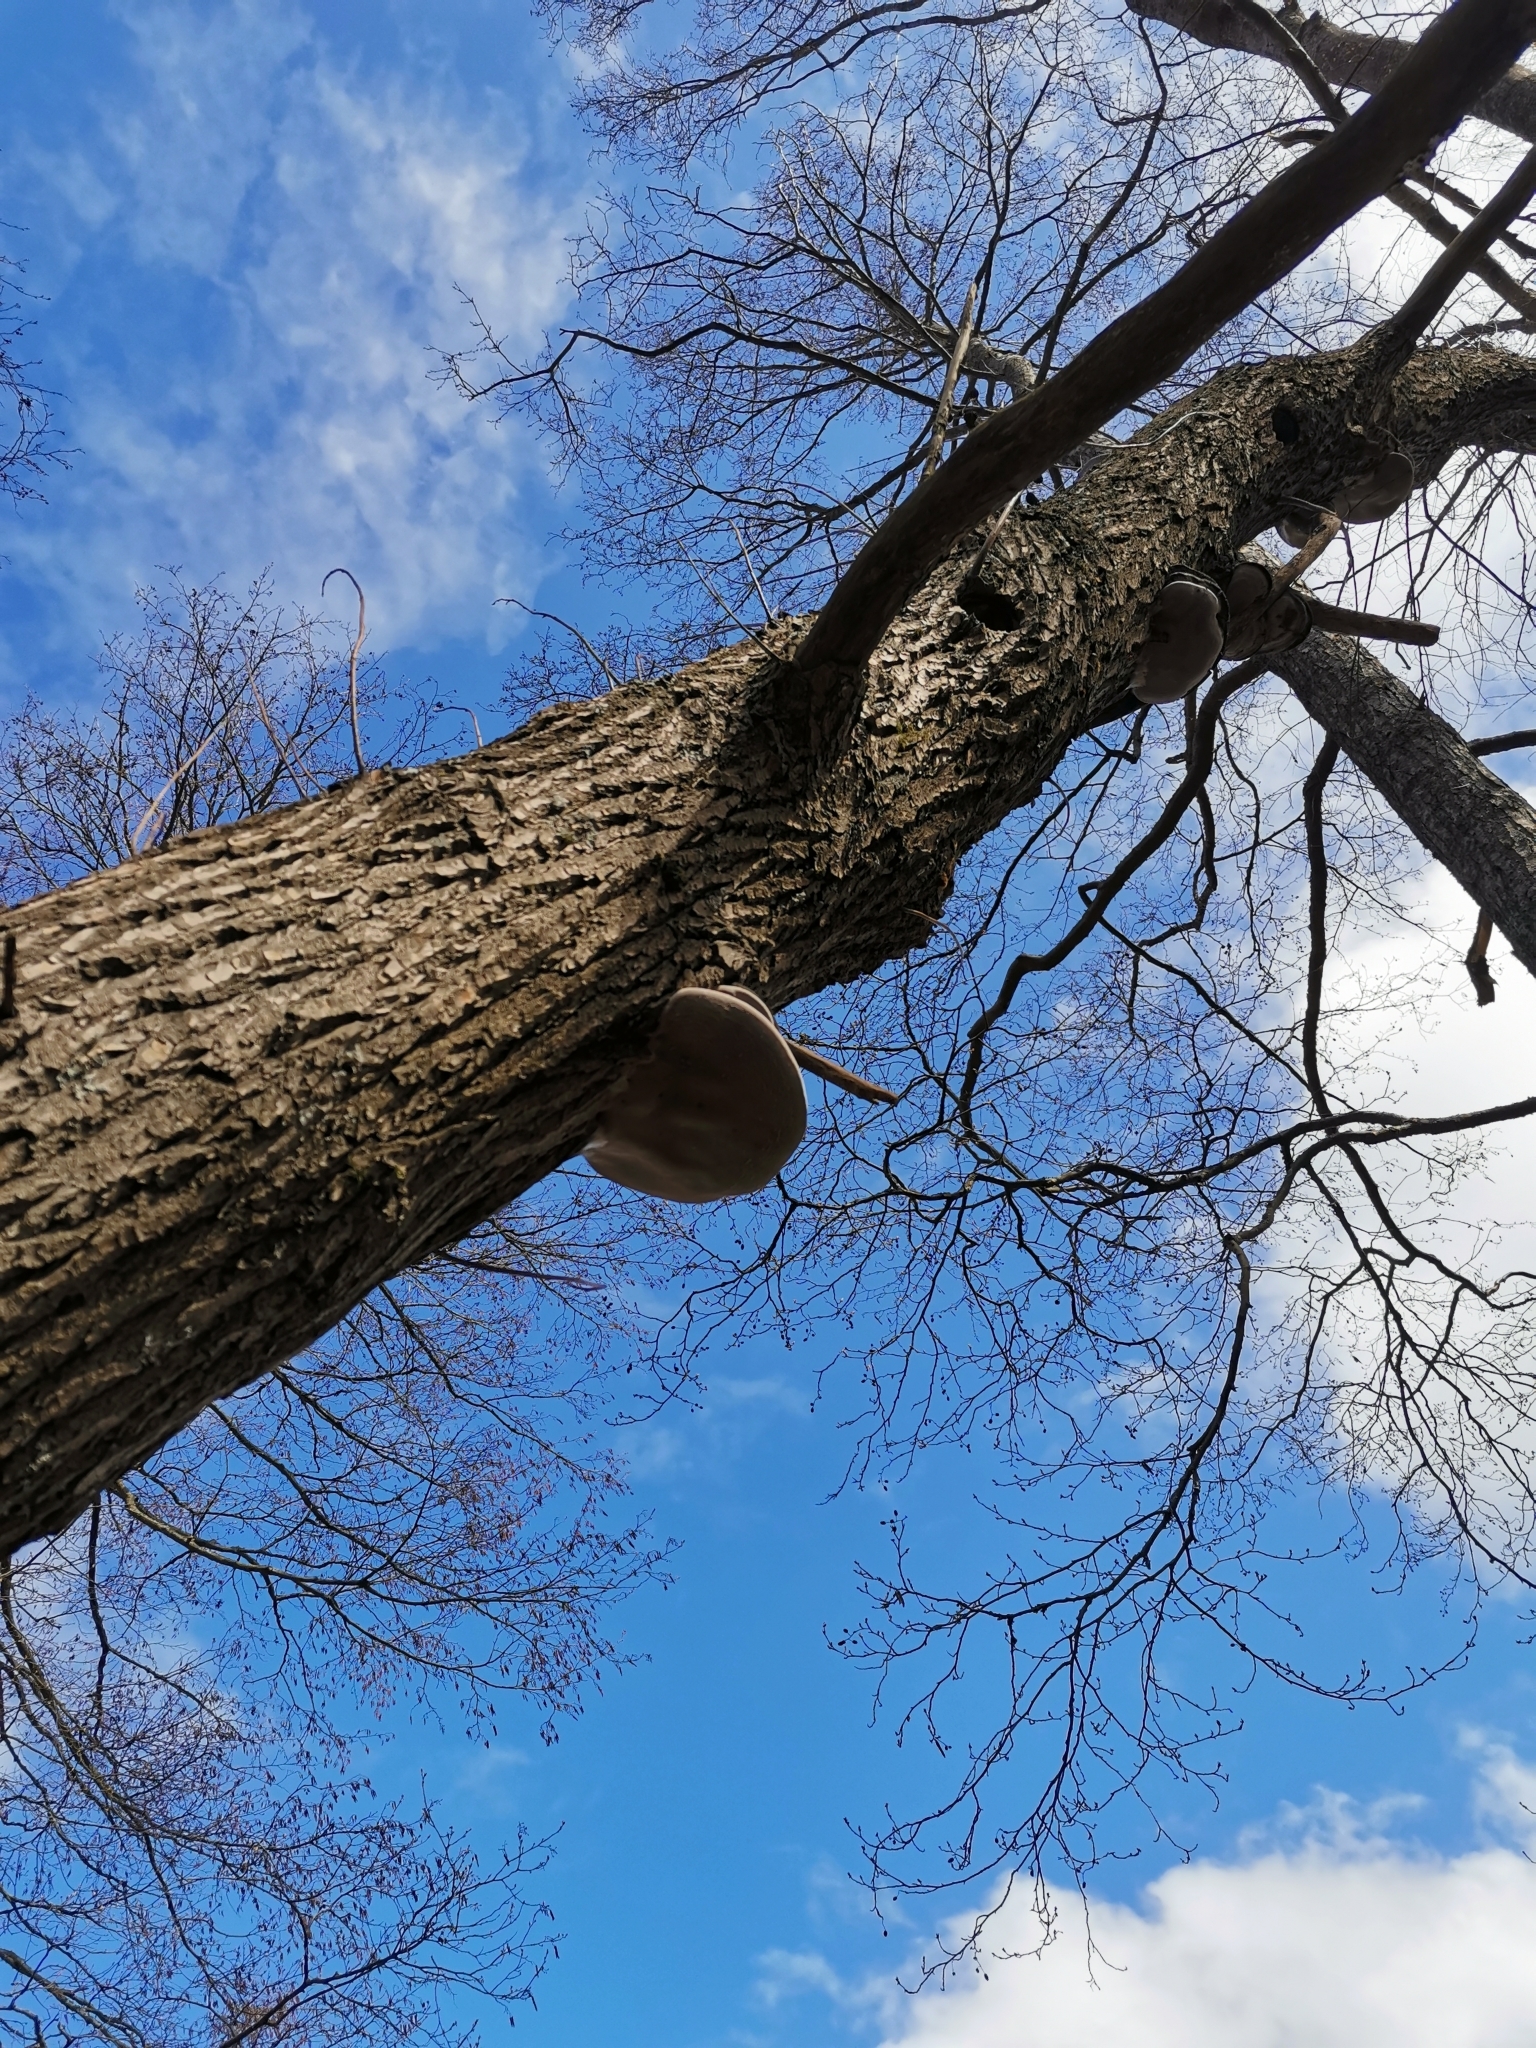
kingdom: Fungi
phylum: Basidiomycota
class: Agaricomycetes
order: Hymenochaetales
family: Hymenochaetaceae
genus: Phellinus
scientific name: Phellinus igniarius
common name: Willow bracket
